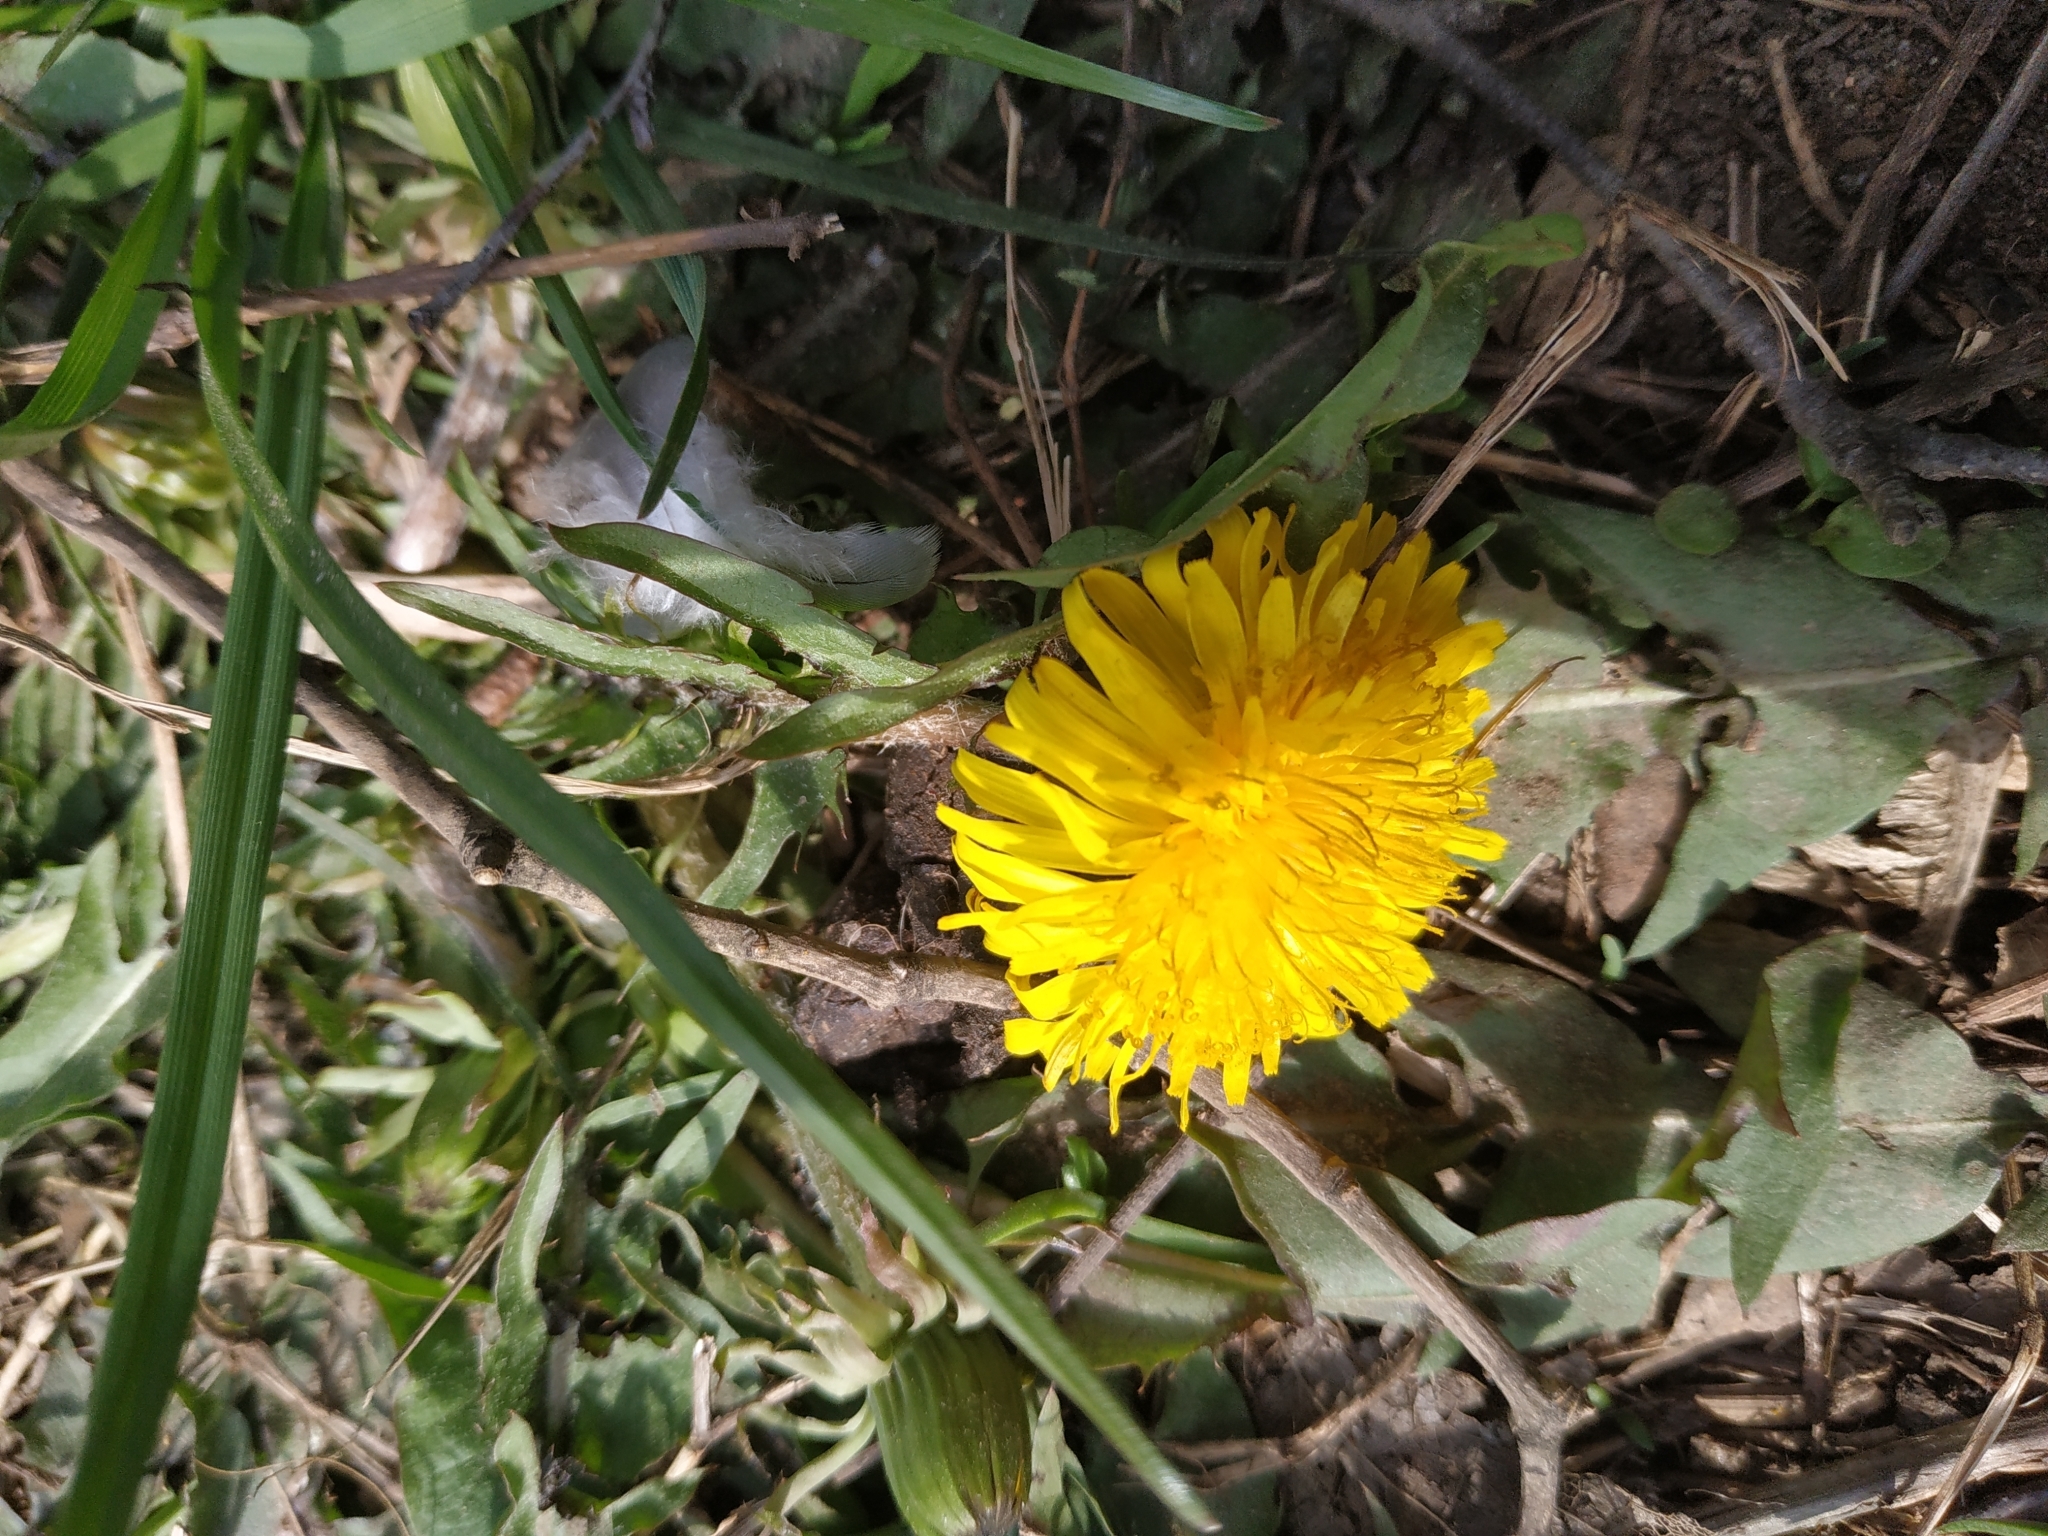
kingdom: Plantae
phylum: Tracheophyta
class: Magnoliopsida
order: Asterales
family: Asteraceae
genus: Taraxacum
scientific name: Taraxacum officinale
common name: Common dandelion
